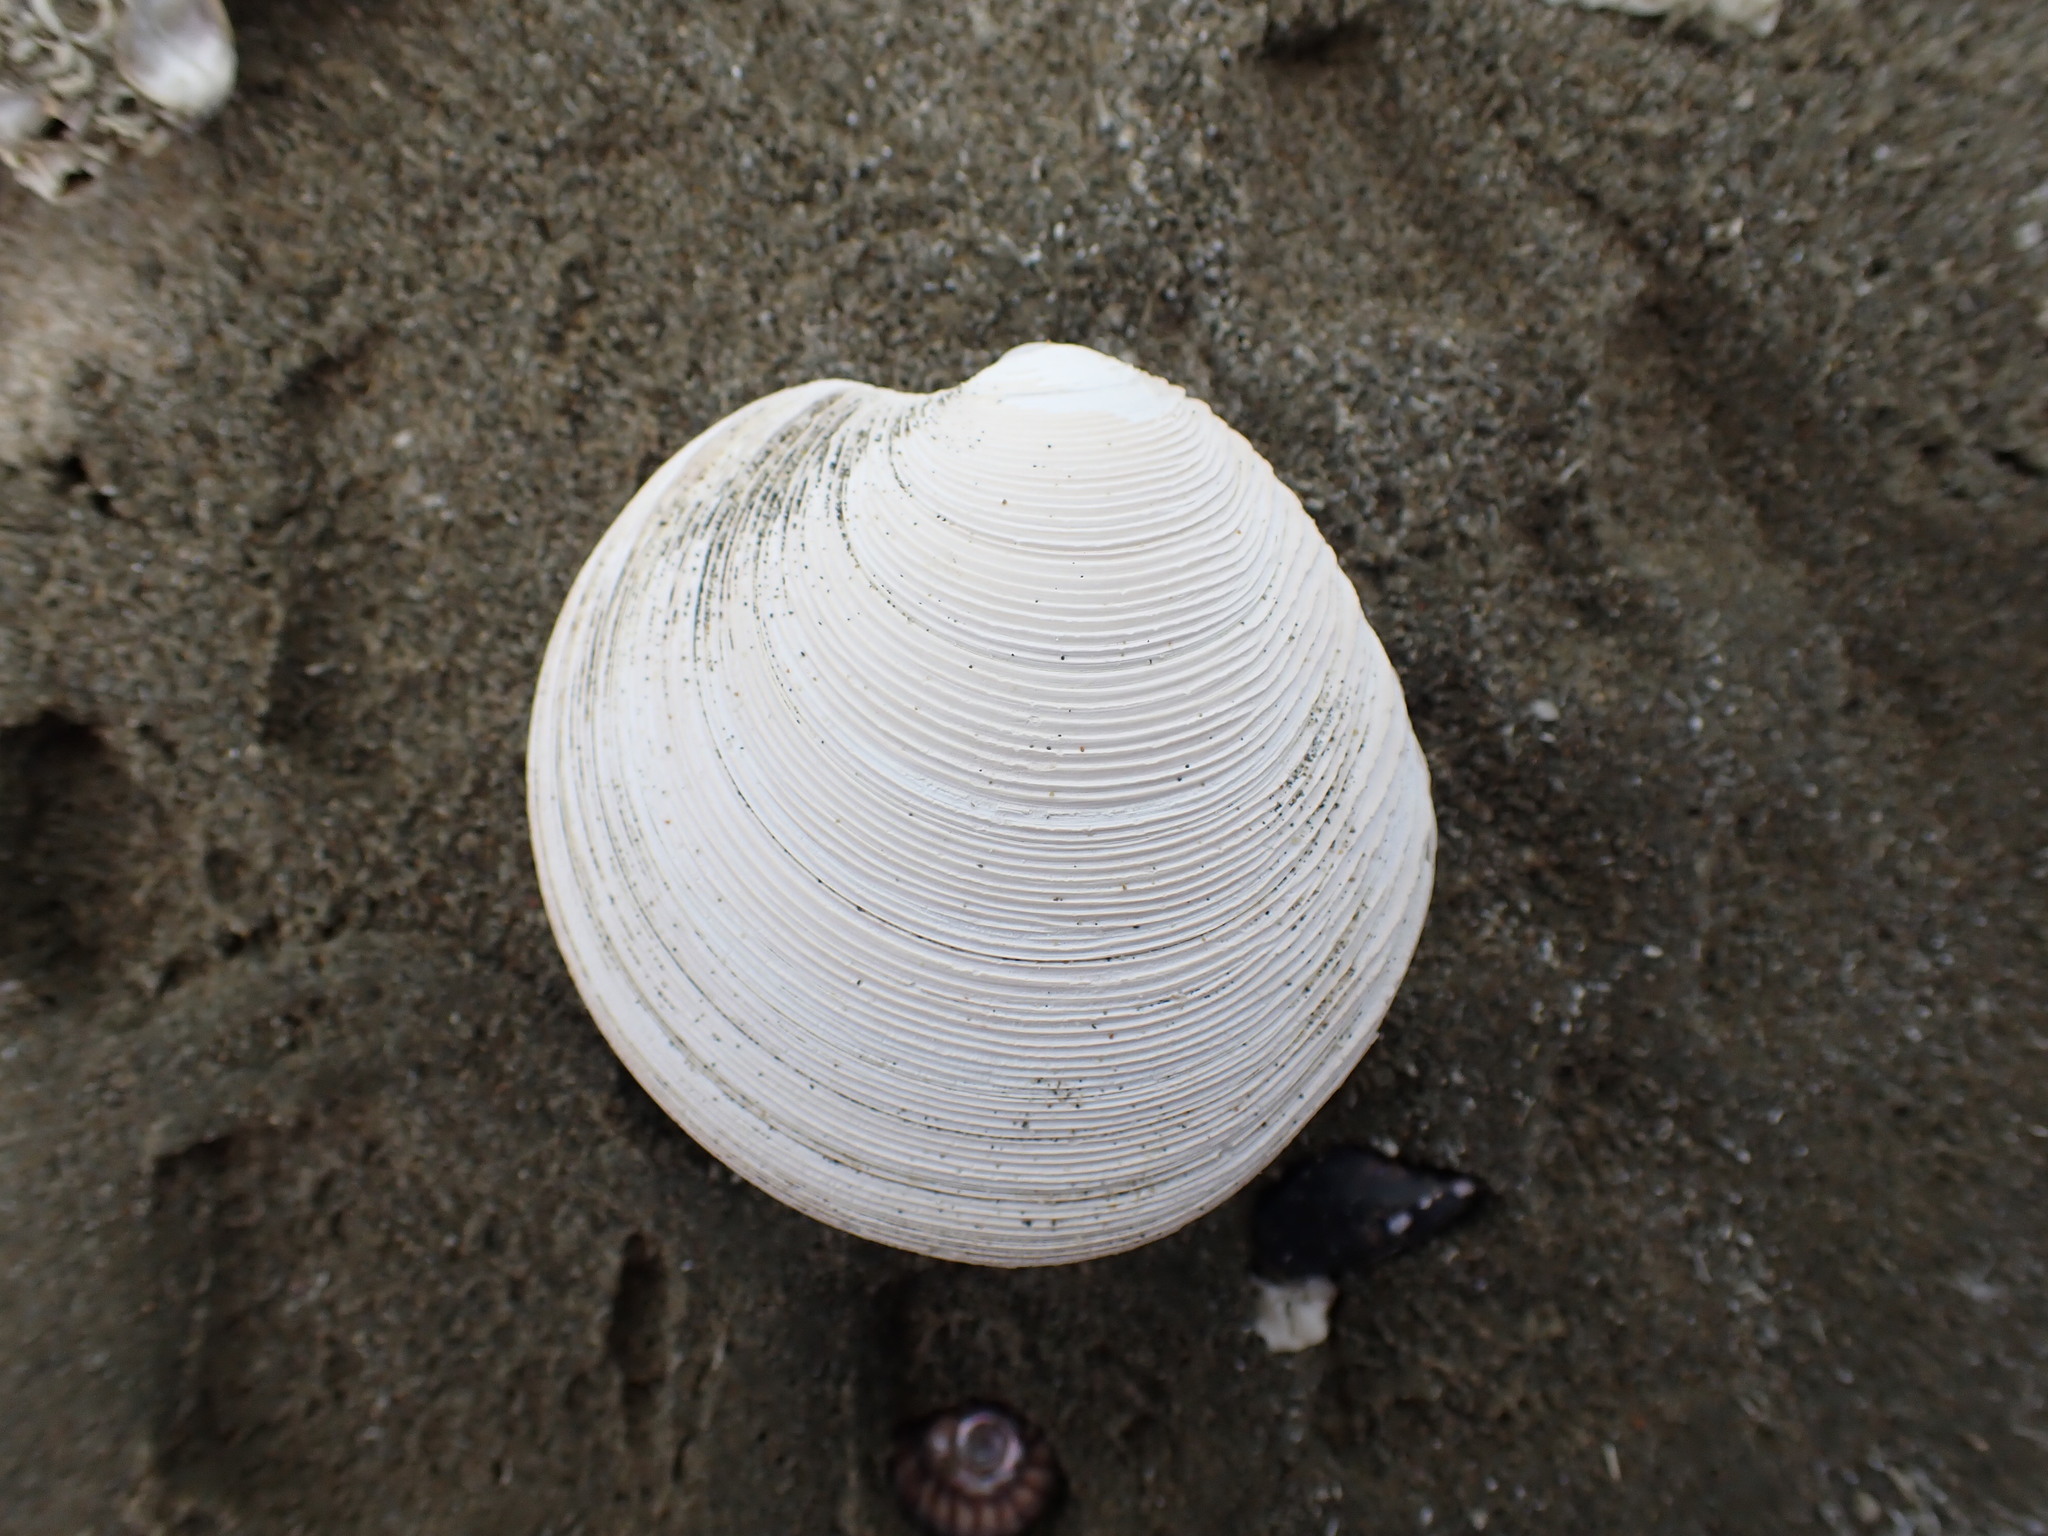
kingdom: Animalia
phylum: Mollusca
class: Bivalvia
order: Venerida
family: Veneridae
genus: Dosinia
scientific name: Dosinia anus
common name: Old-woman dosinia
